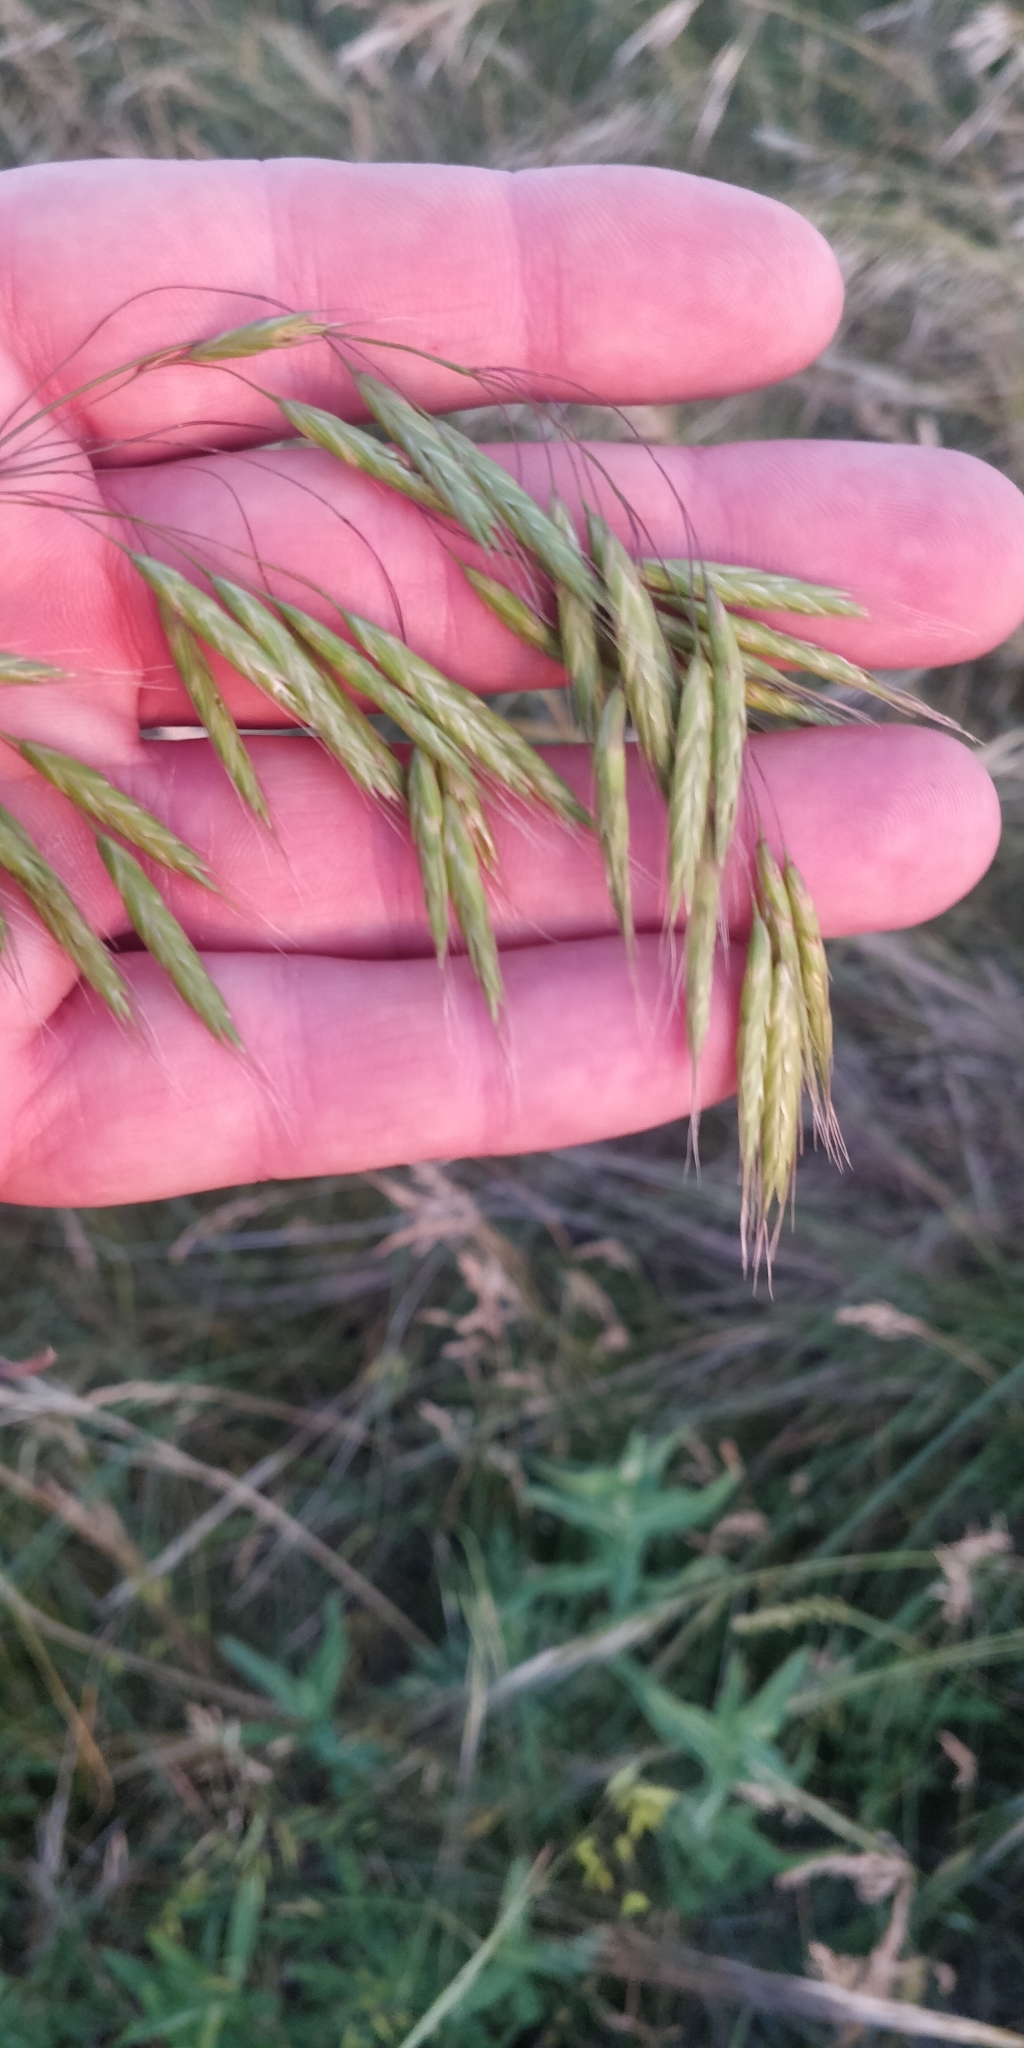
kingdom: Plantae
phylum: Tracheophyta
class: Liliopsida
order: Poales
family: Poaceae
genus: Bromus
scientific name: Bromus japonicus
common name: Japanese brome
